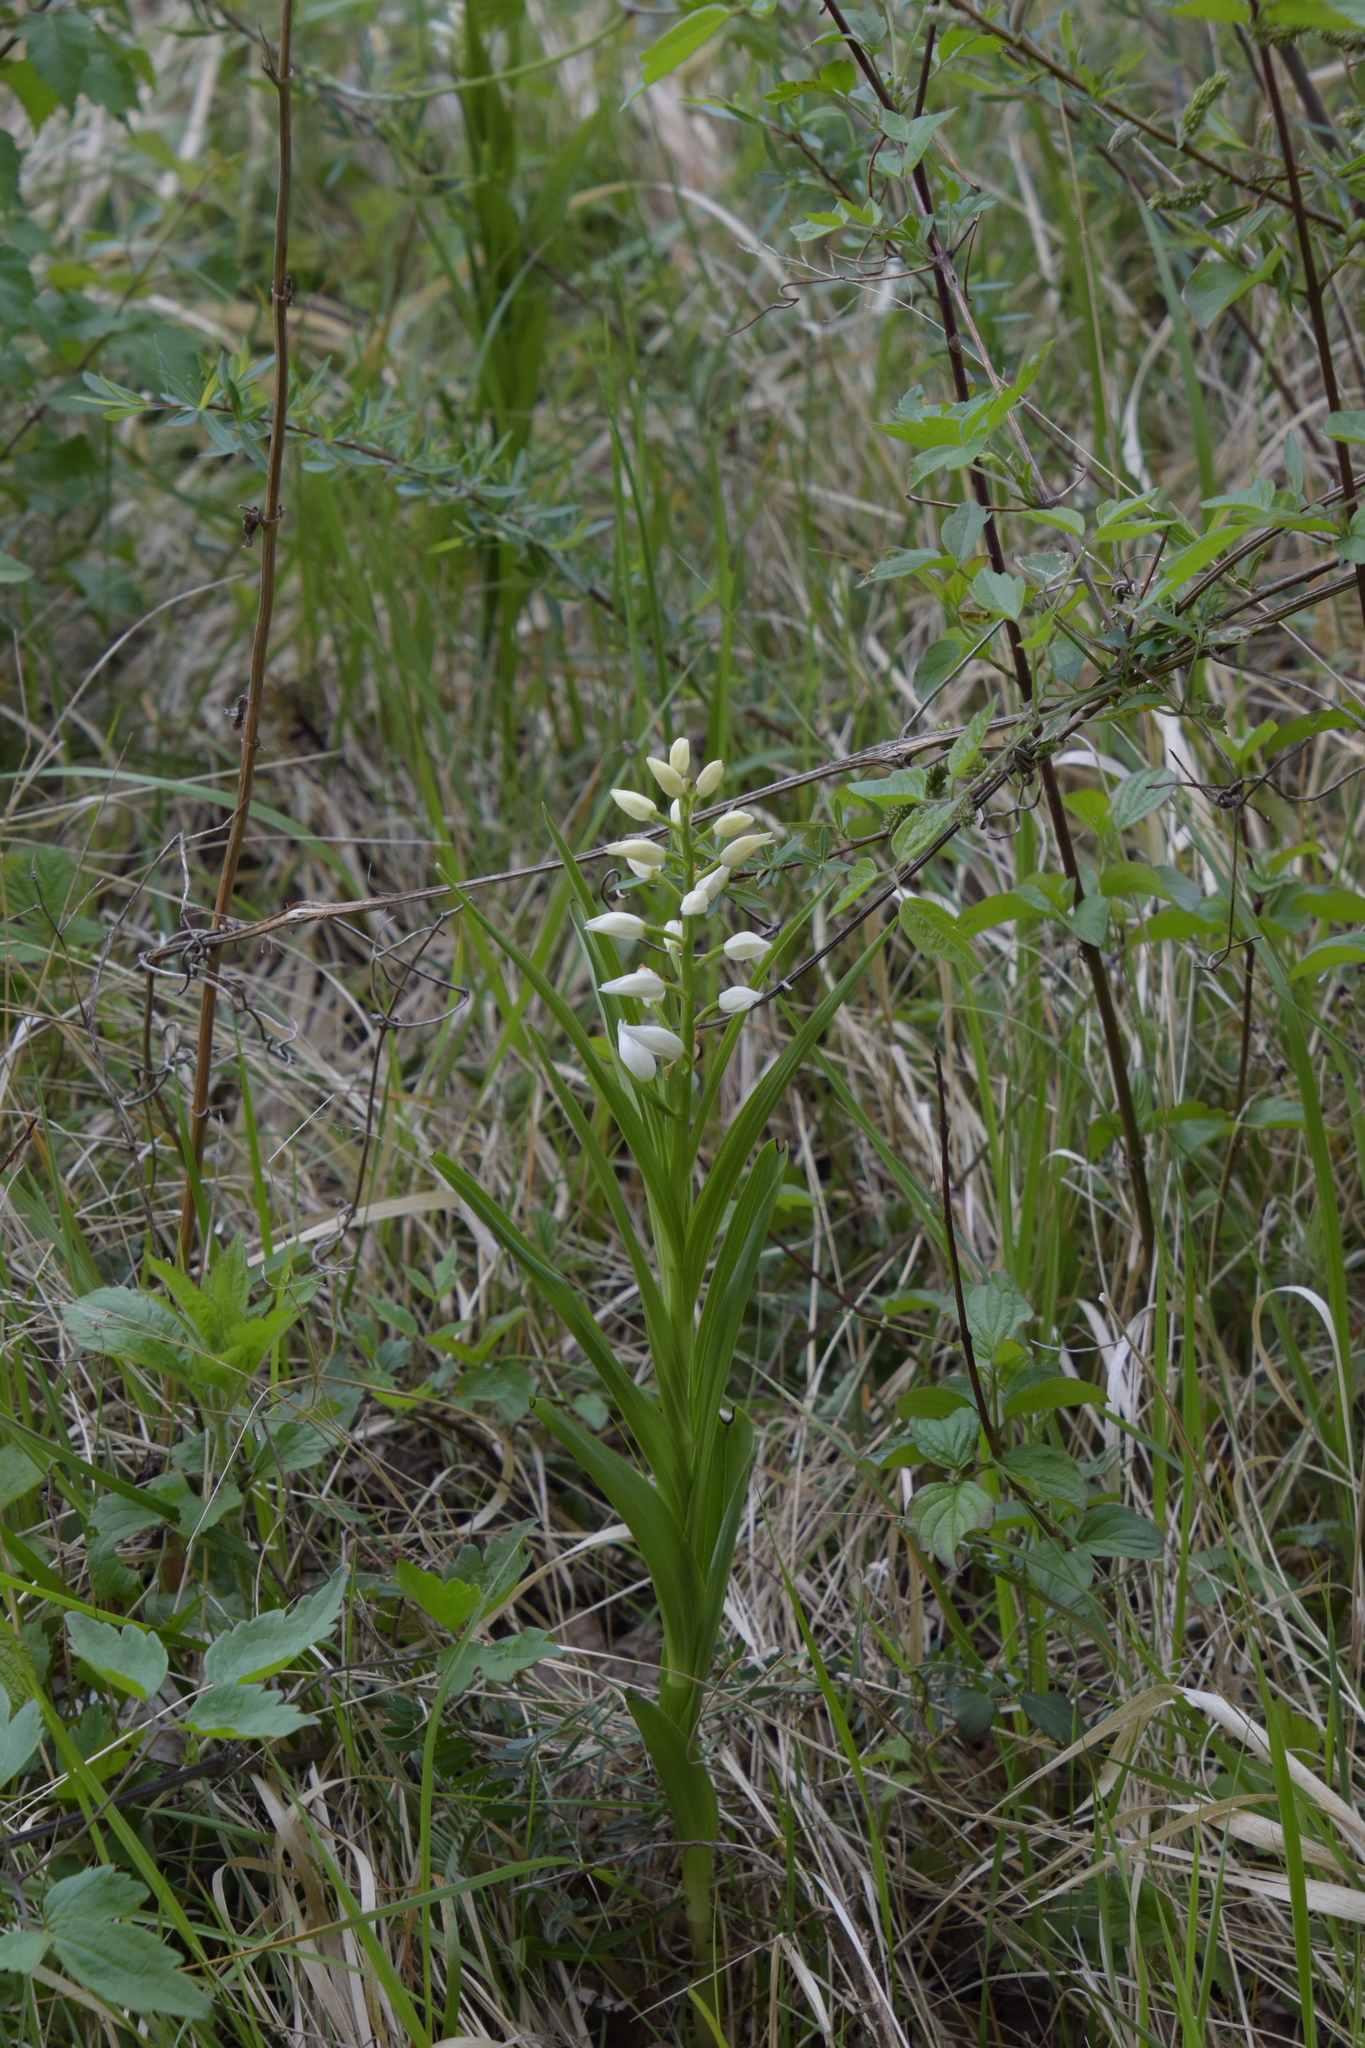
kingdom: Plantae
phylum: Tracheophyta
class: Liliopsida
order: Asparagales
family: Orchidaceae
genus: Cephalanthera
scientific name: Cephalanthera longifolia
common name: Narrow-leaved helleborine
